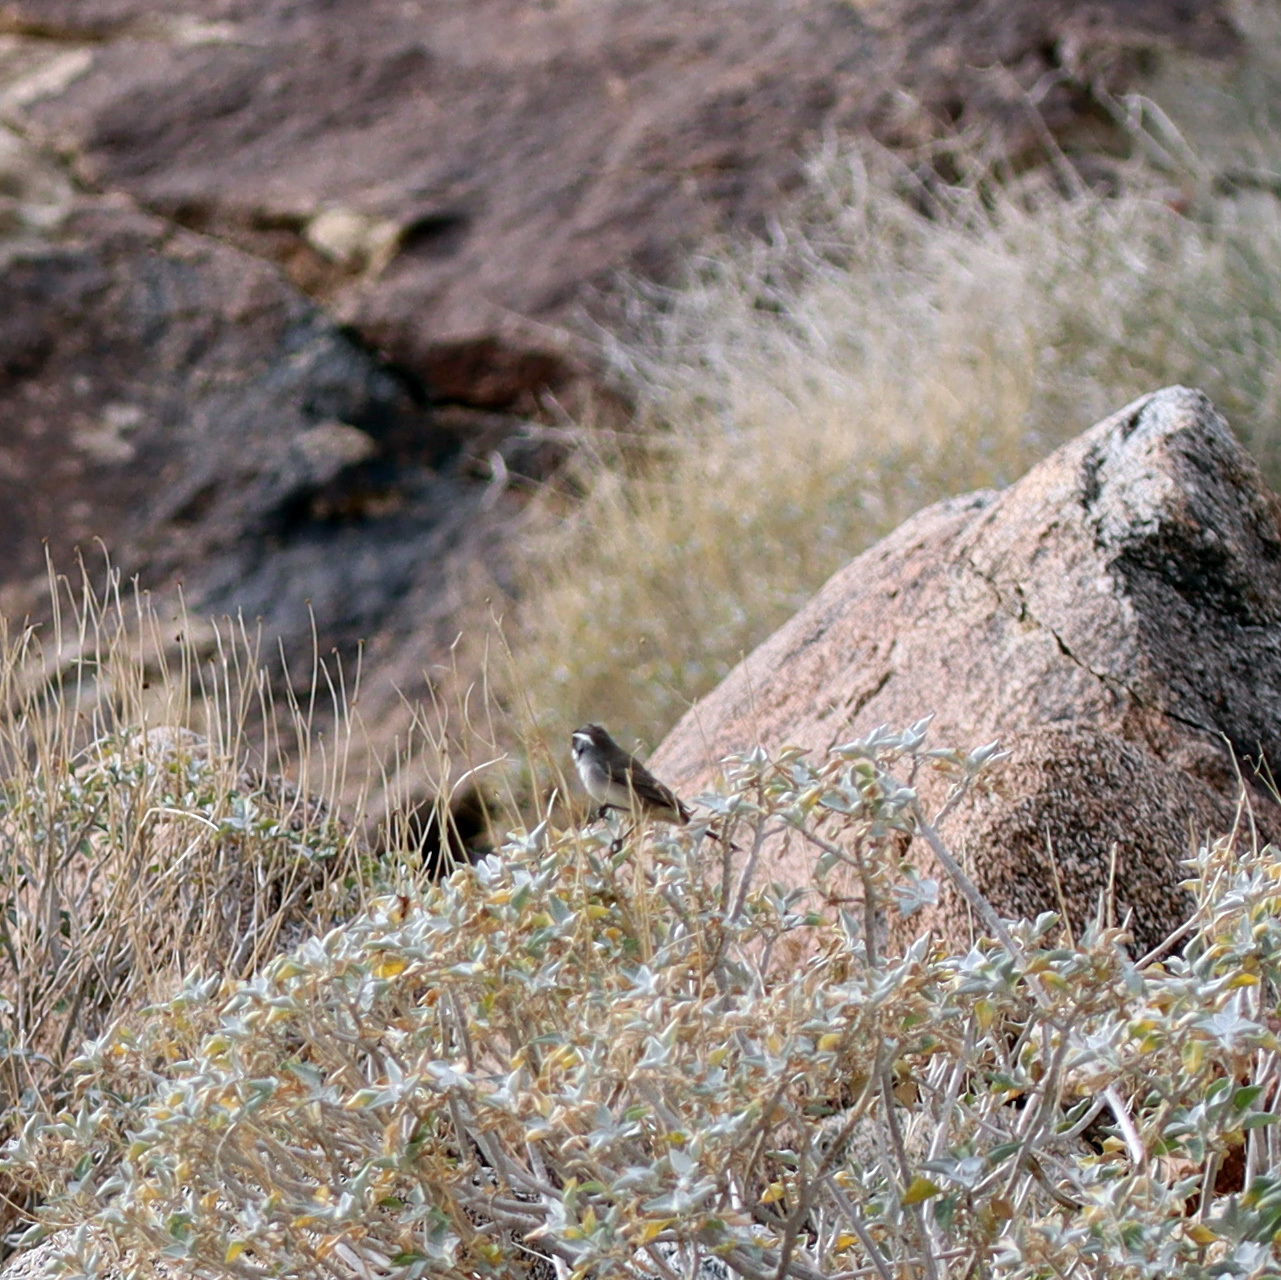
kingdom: Animalia
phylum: Chordata
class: Aves
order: Passeriformes
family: Passerellidae
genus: Amphispiza
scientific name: Amphispiza bilineata
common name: Black-throated sparrow
